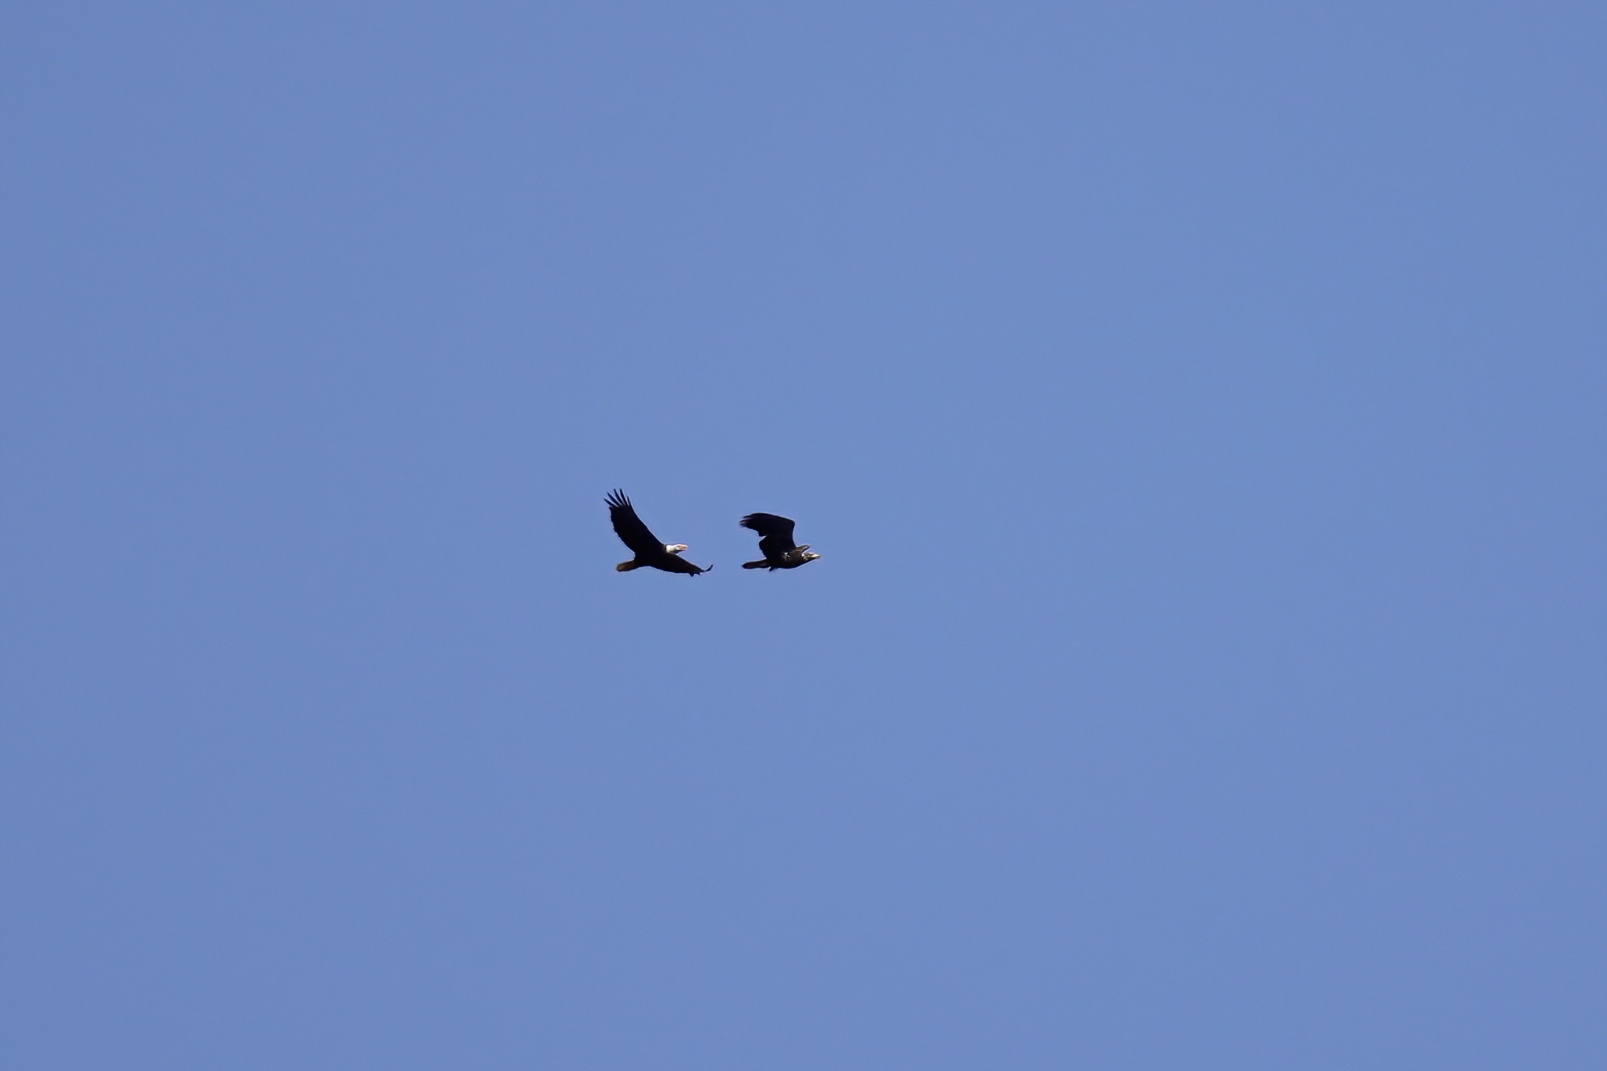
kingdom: Animalia
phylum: Chordata
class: Aves
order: Accipitriformes
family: Accipitridae
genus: Haliaeetus
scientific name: Haliaeetus leucocephalus
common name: Bald eagle
